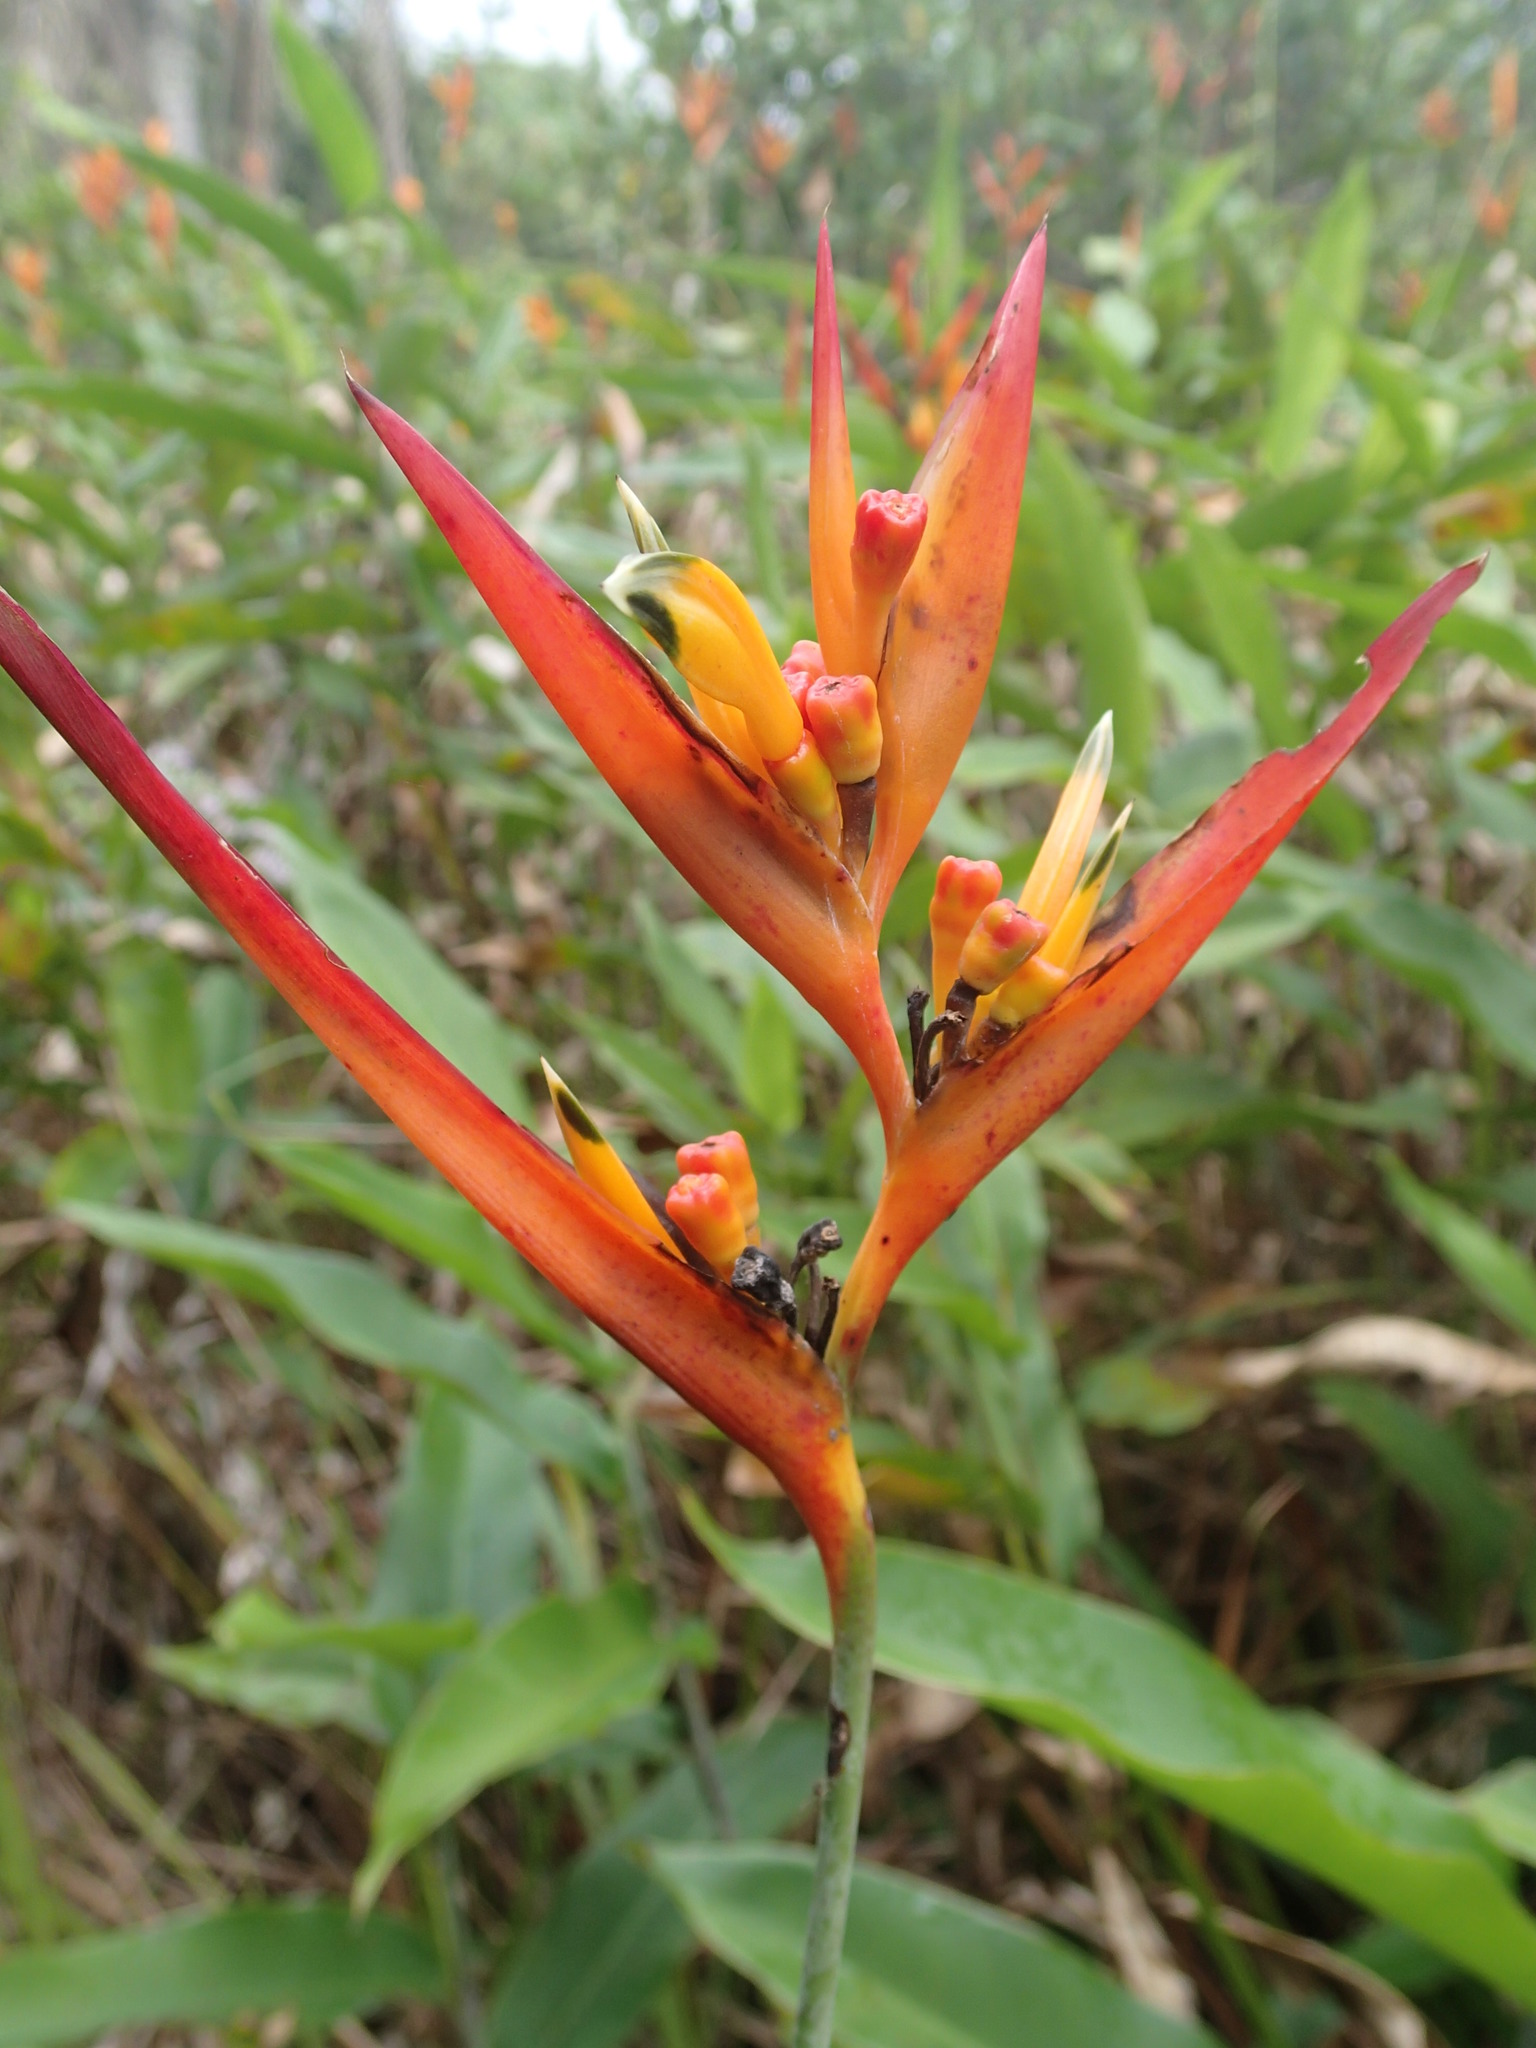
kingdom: Plantae
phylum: Tracheophyta
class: Liliopsida
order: Zingiberales
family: Heliconiaceae
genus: Heliconia
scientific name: Heliconia psittacorum
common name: Parrot's-flower
